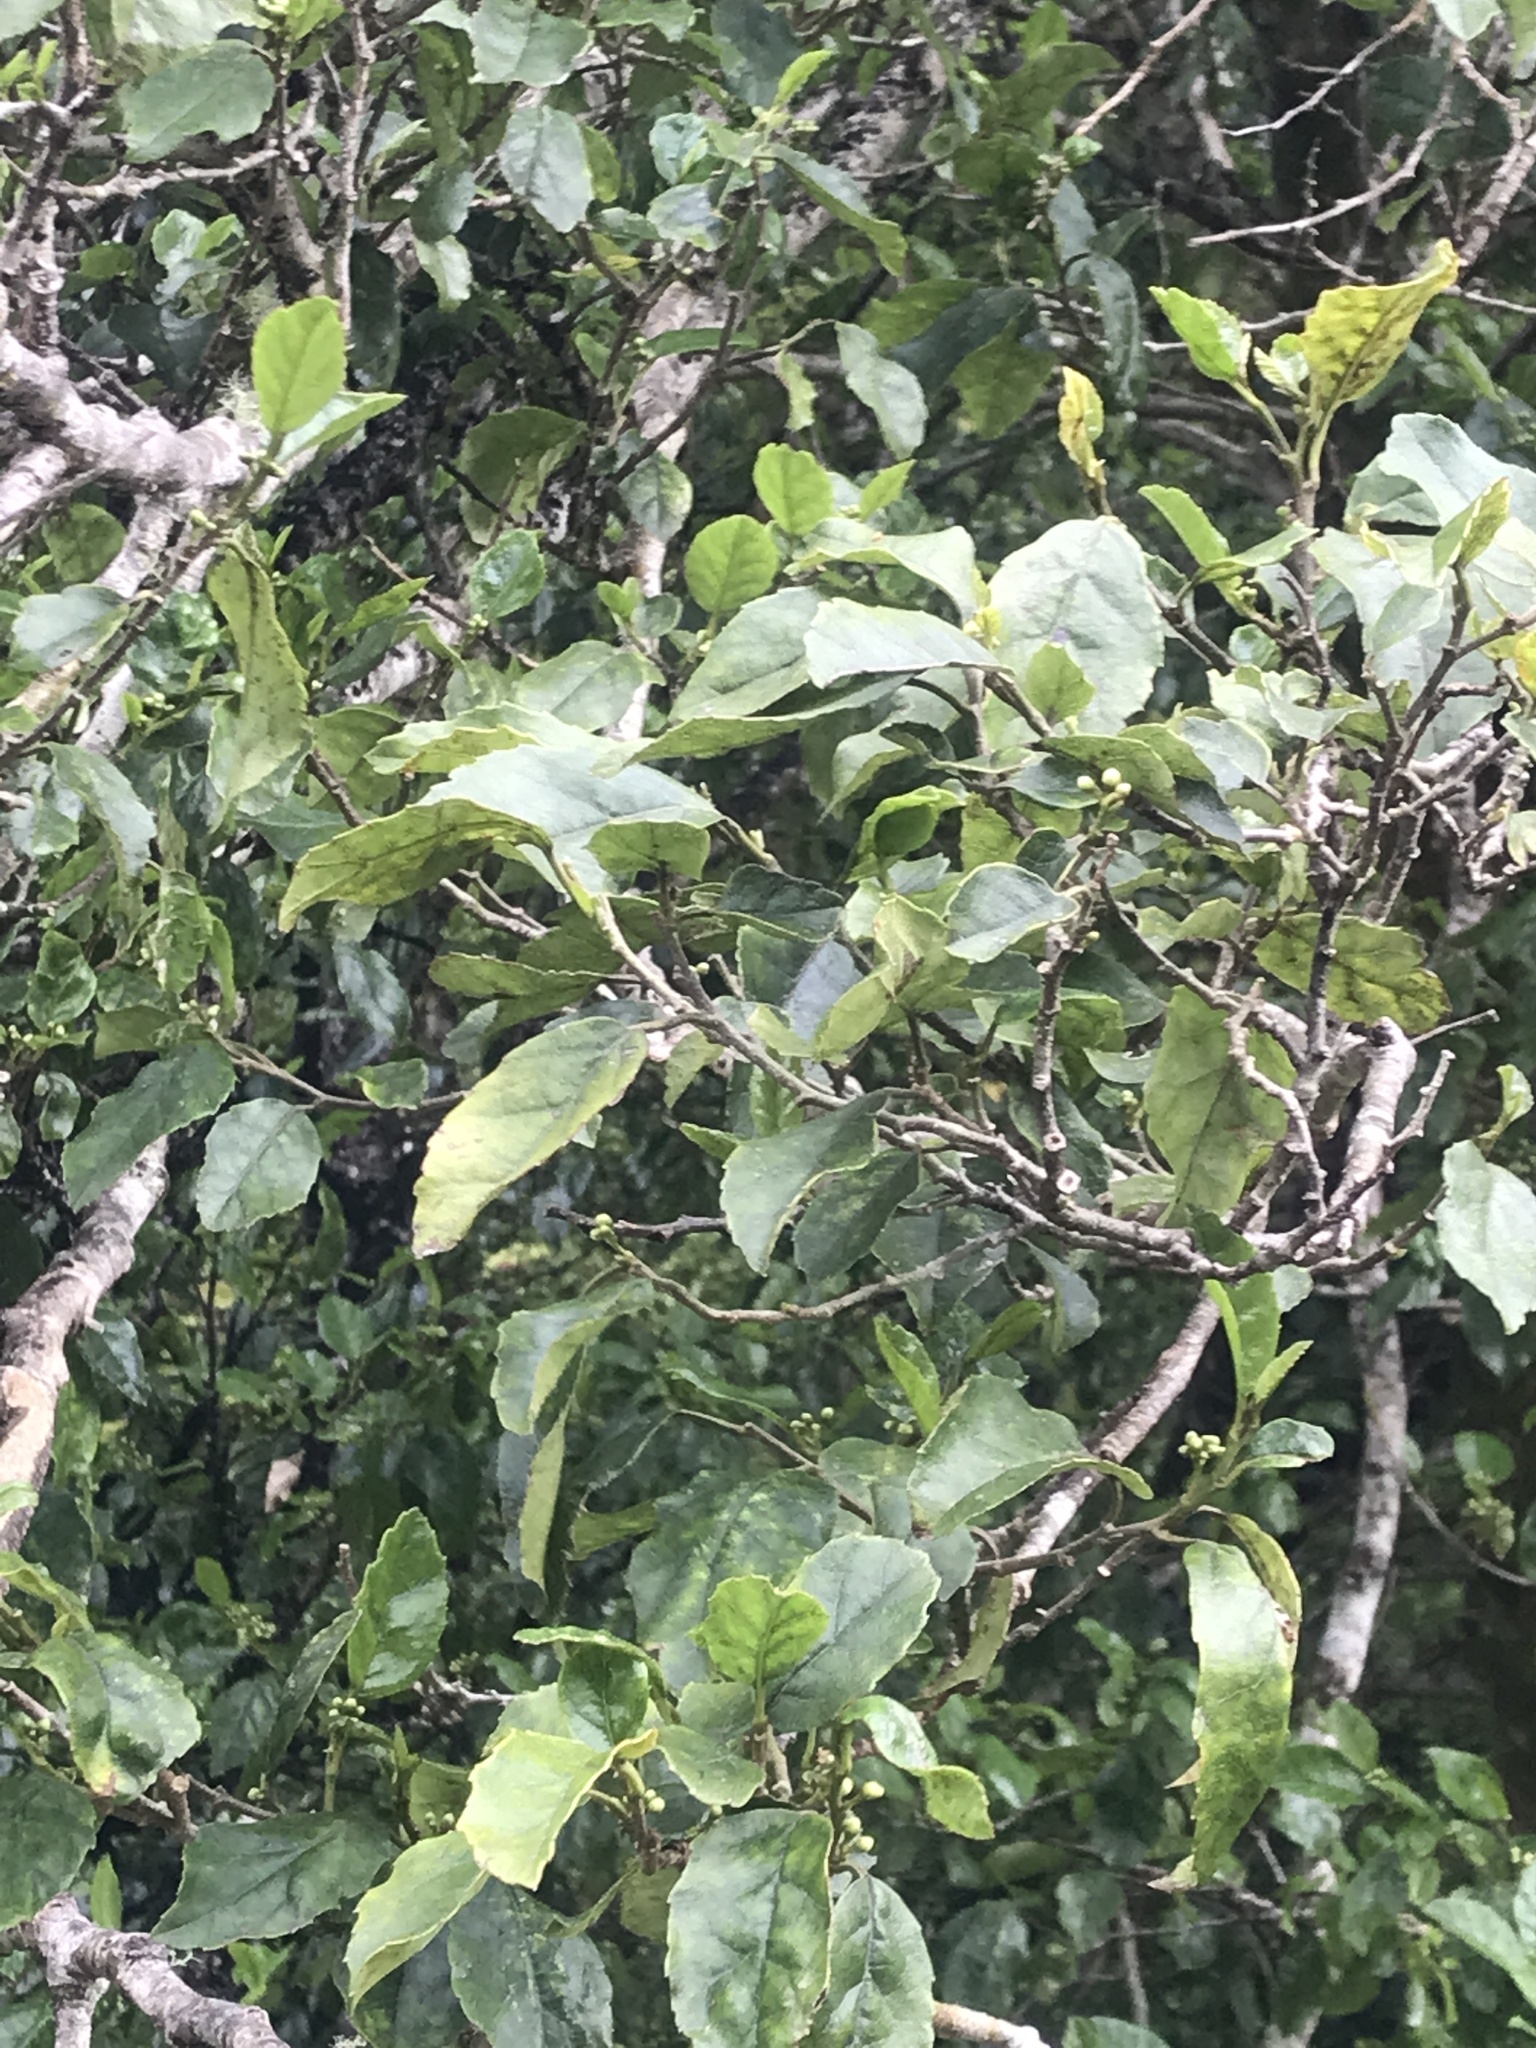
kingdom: Plantae
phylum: Tracheophyta
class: Magnoliopsida
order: Asterales
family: Rousseaceae
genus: Carpodetus
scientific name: Carpodetus serratus
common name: White mapau
